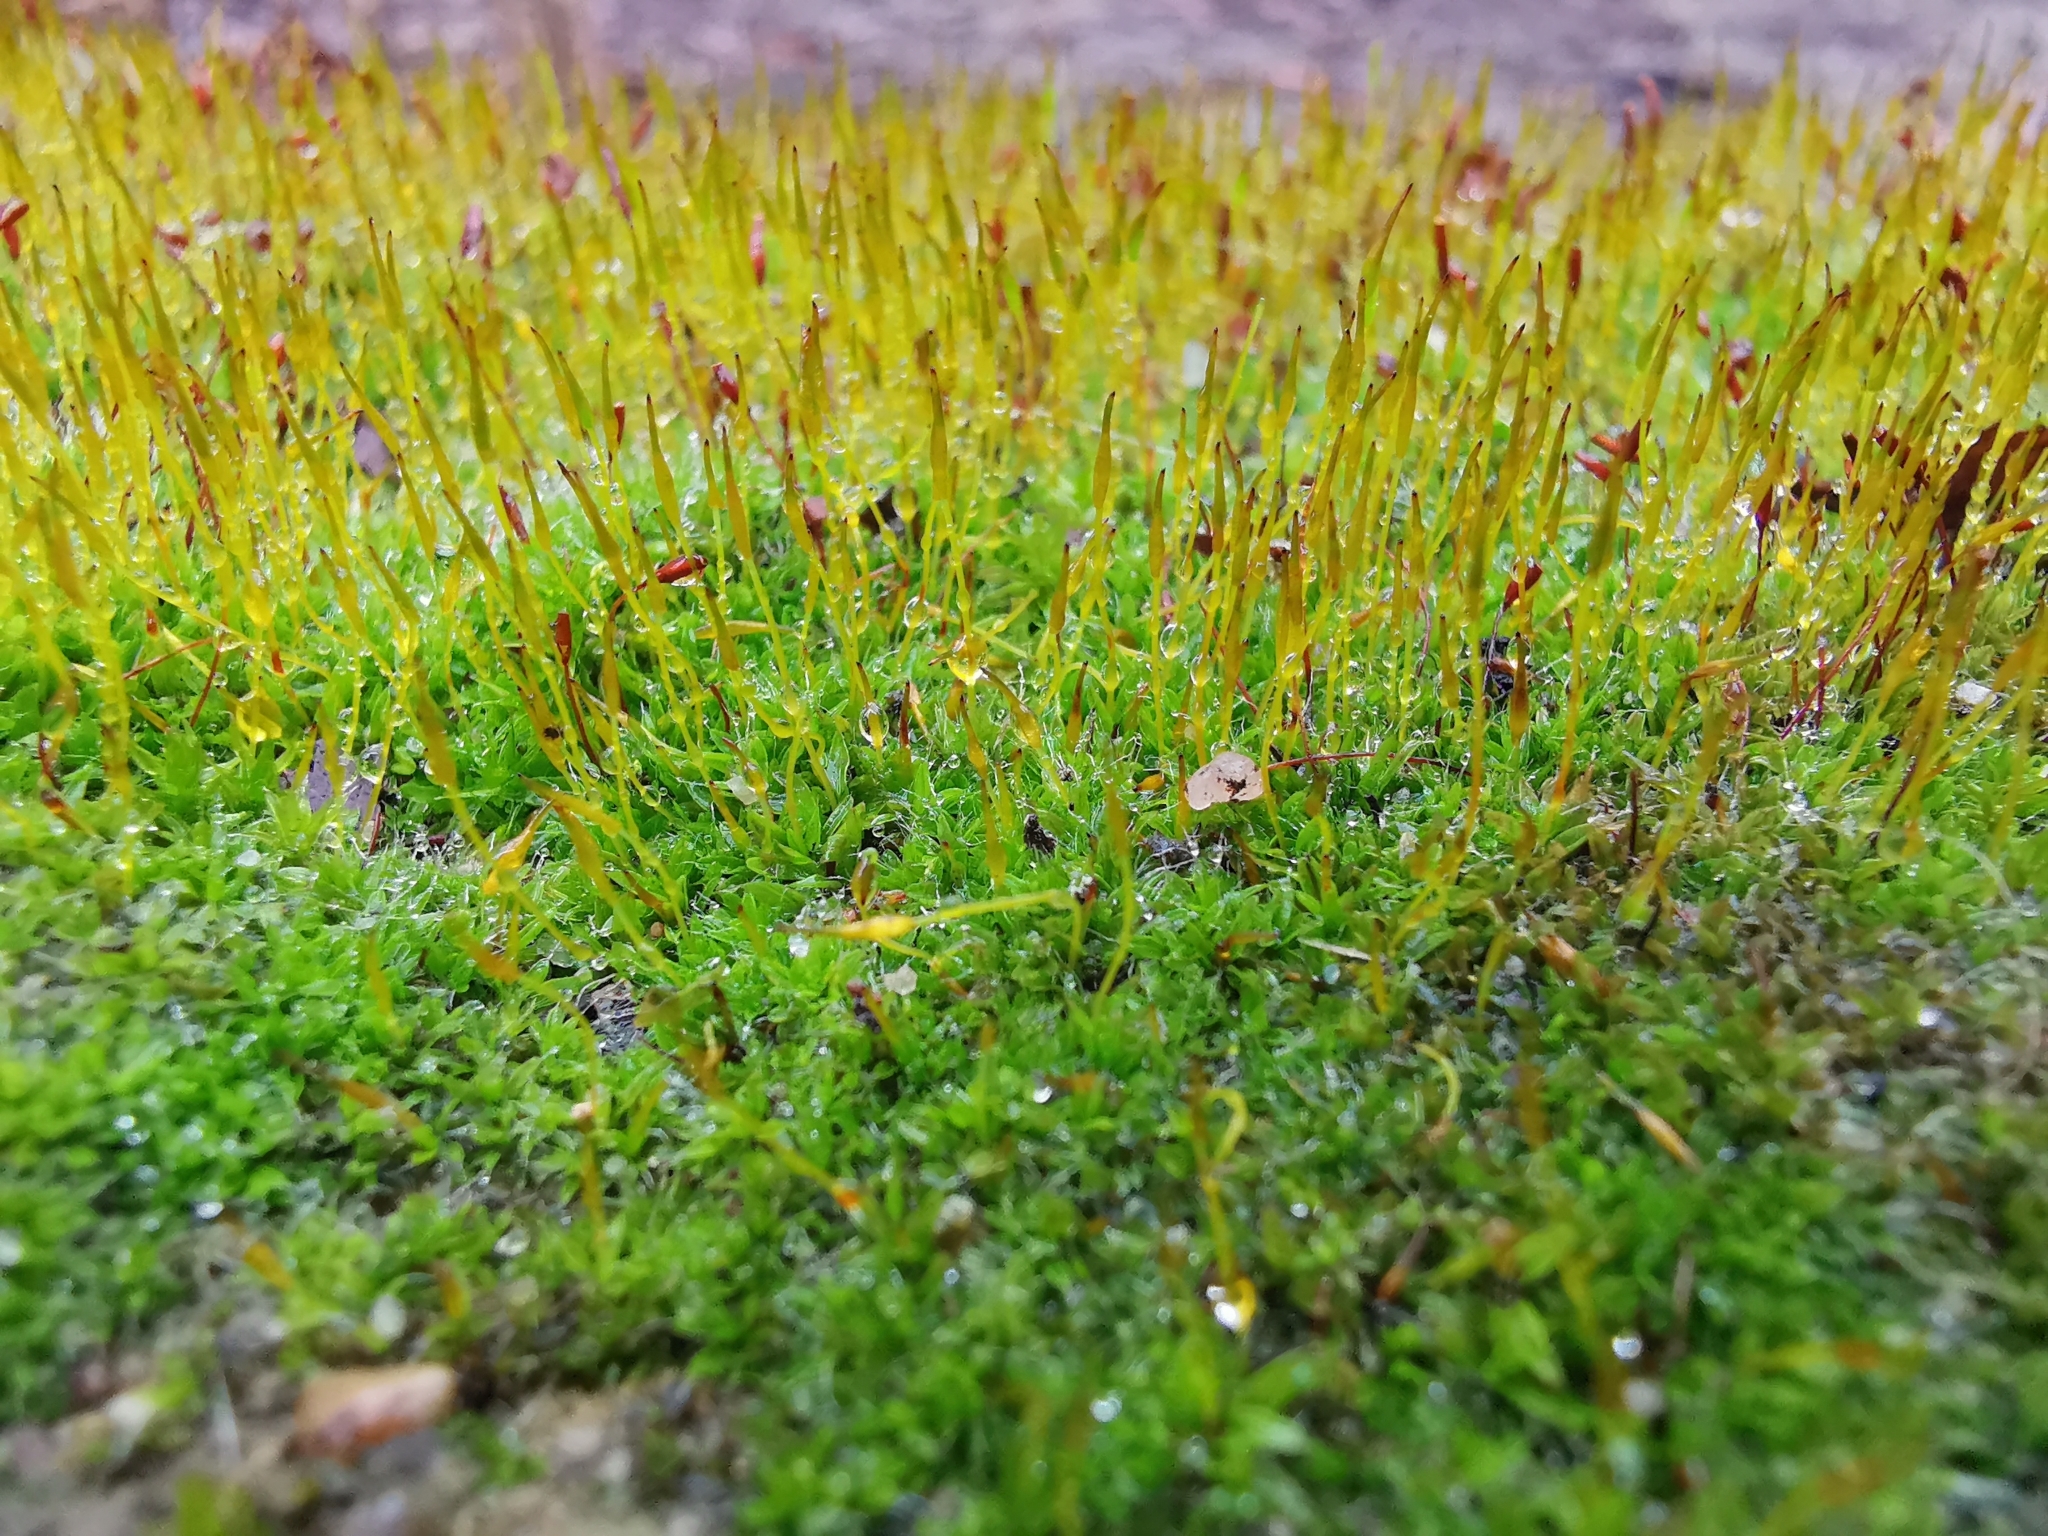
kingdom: Plantae
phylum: Bryophyta
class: Bryopsida
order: Pottiales
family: Pottiaceae
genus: Tortula
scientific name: Tortula muralis
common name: Wall screw-moss
